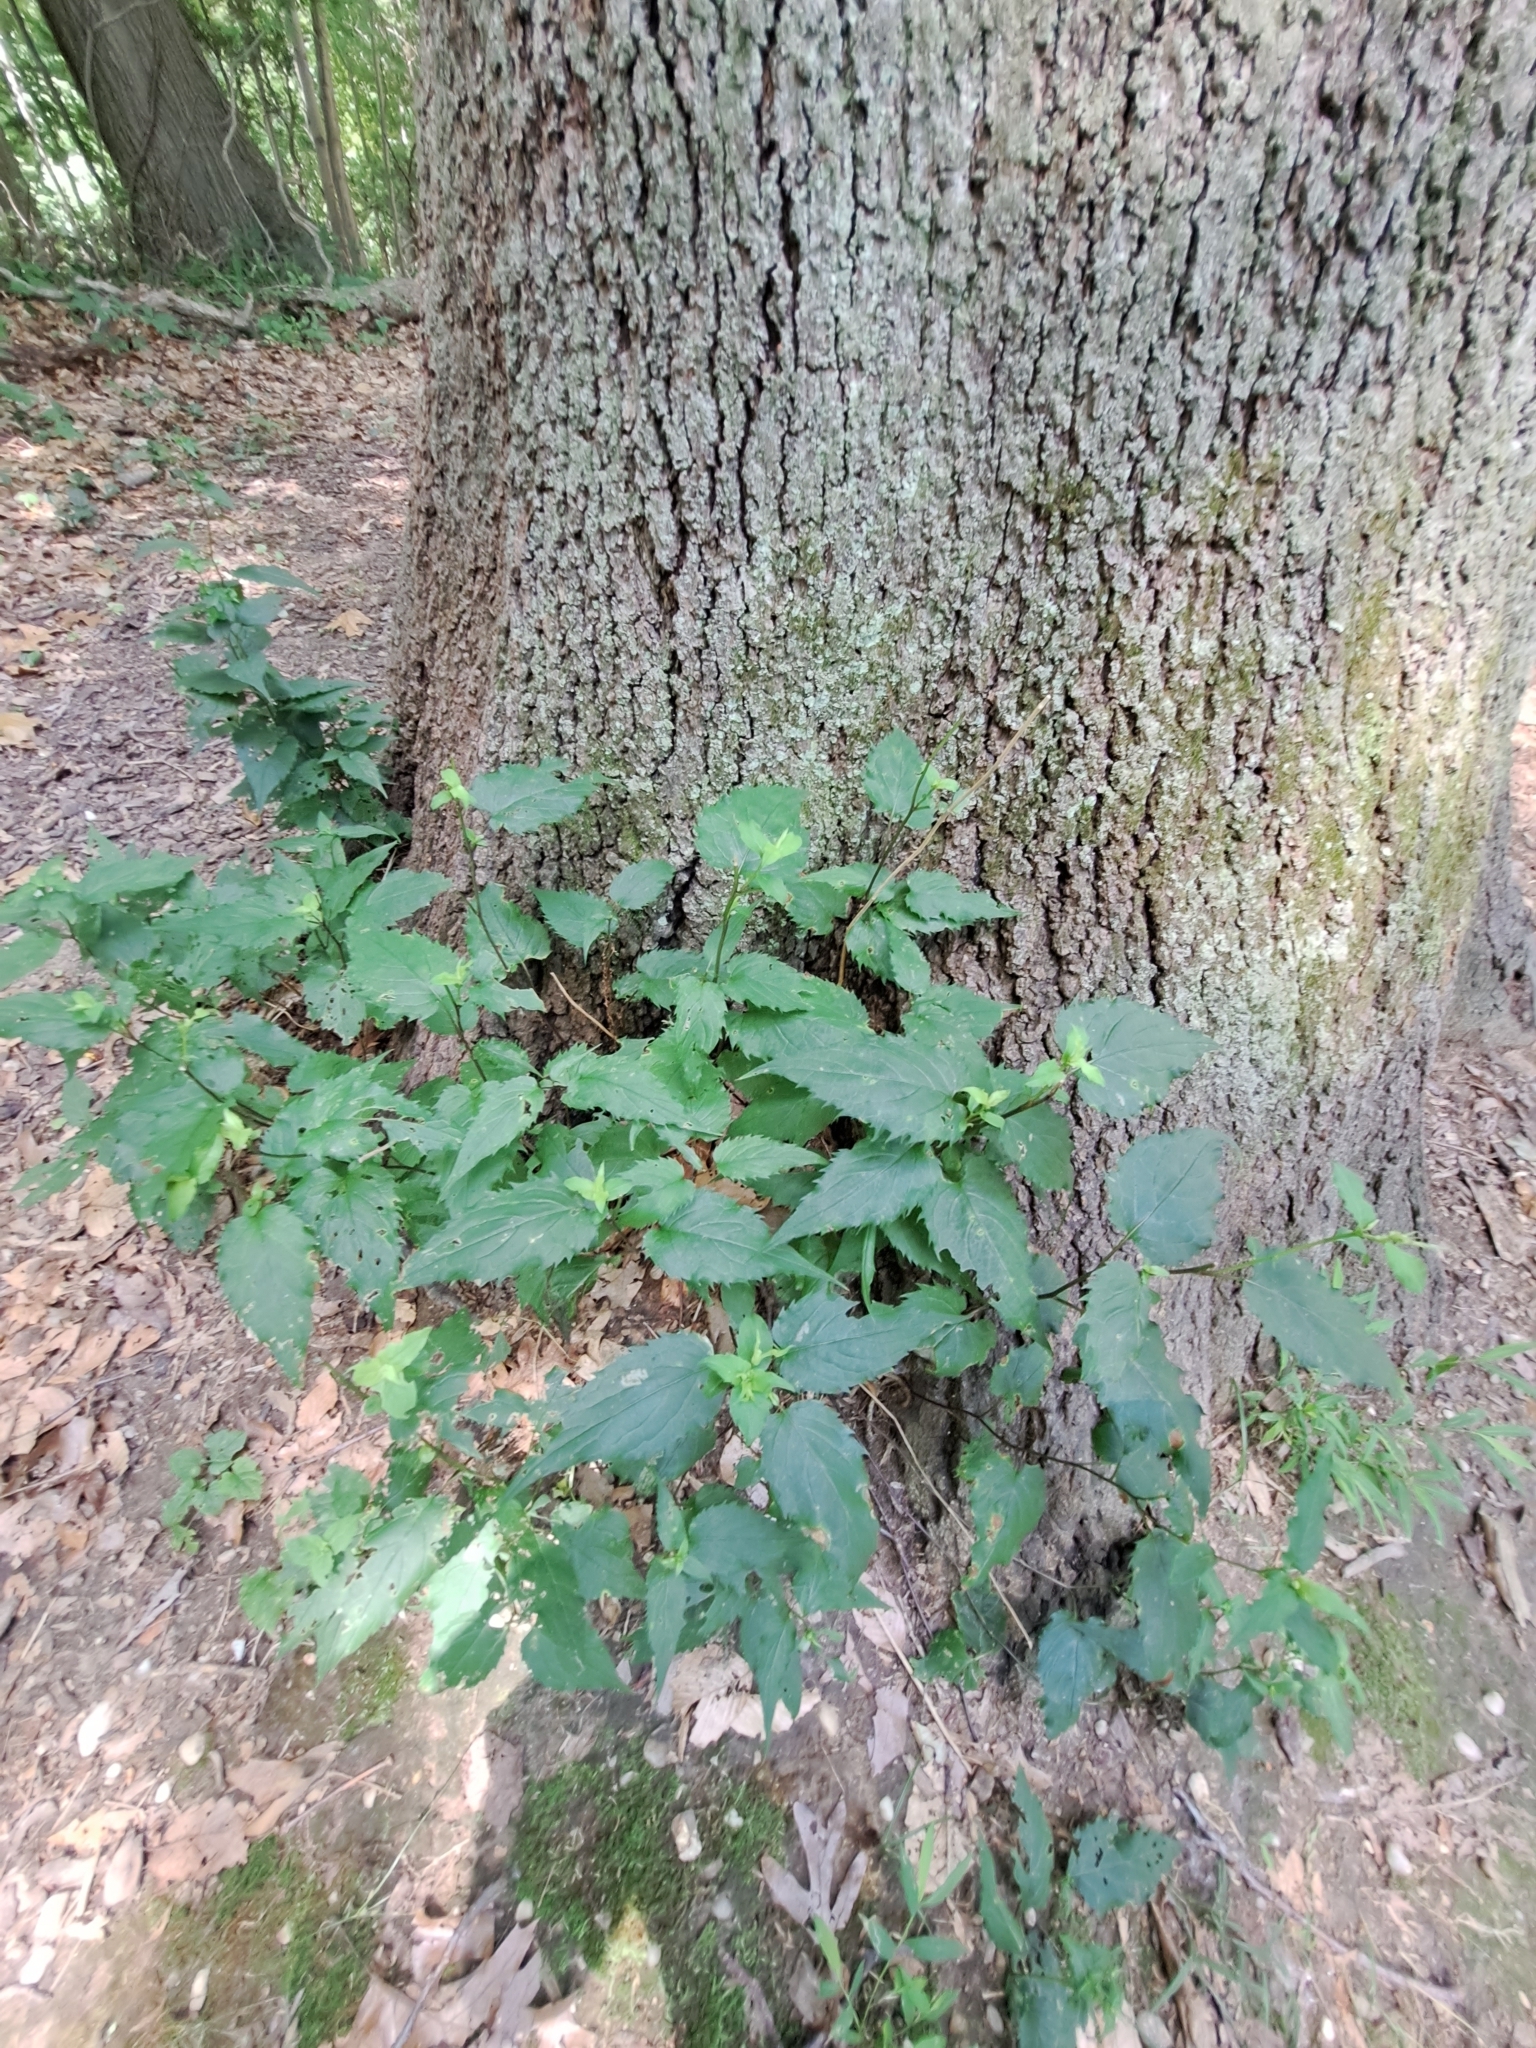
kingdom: Plantae
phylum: Tracheophyta
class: Magnoliopsida
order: Asterales
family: Asteraceae
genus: Eurybia
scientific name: Eurybia divaricata
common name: White wood aster
